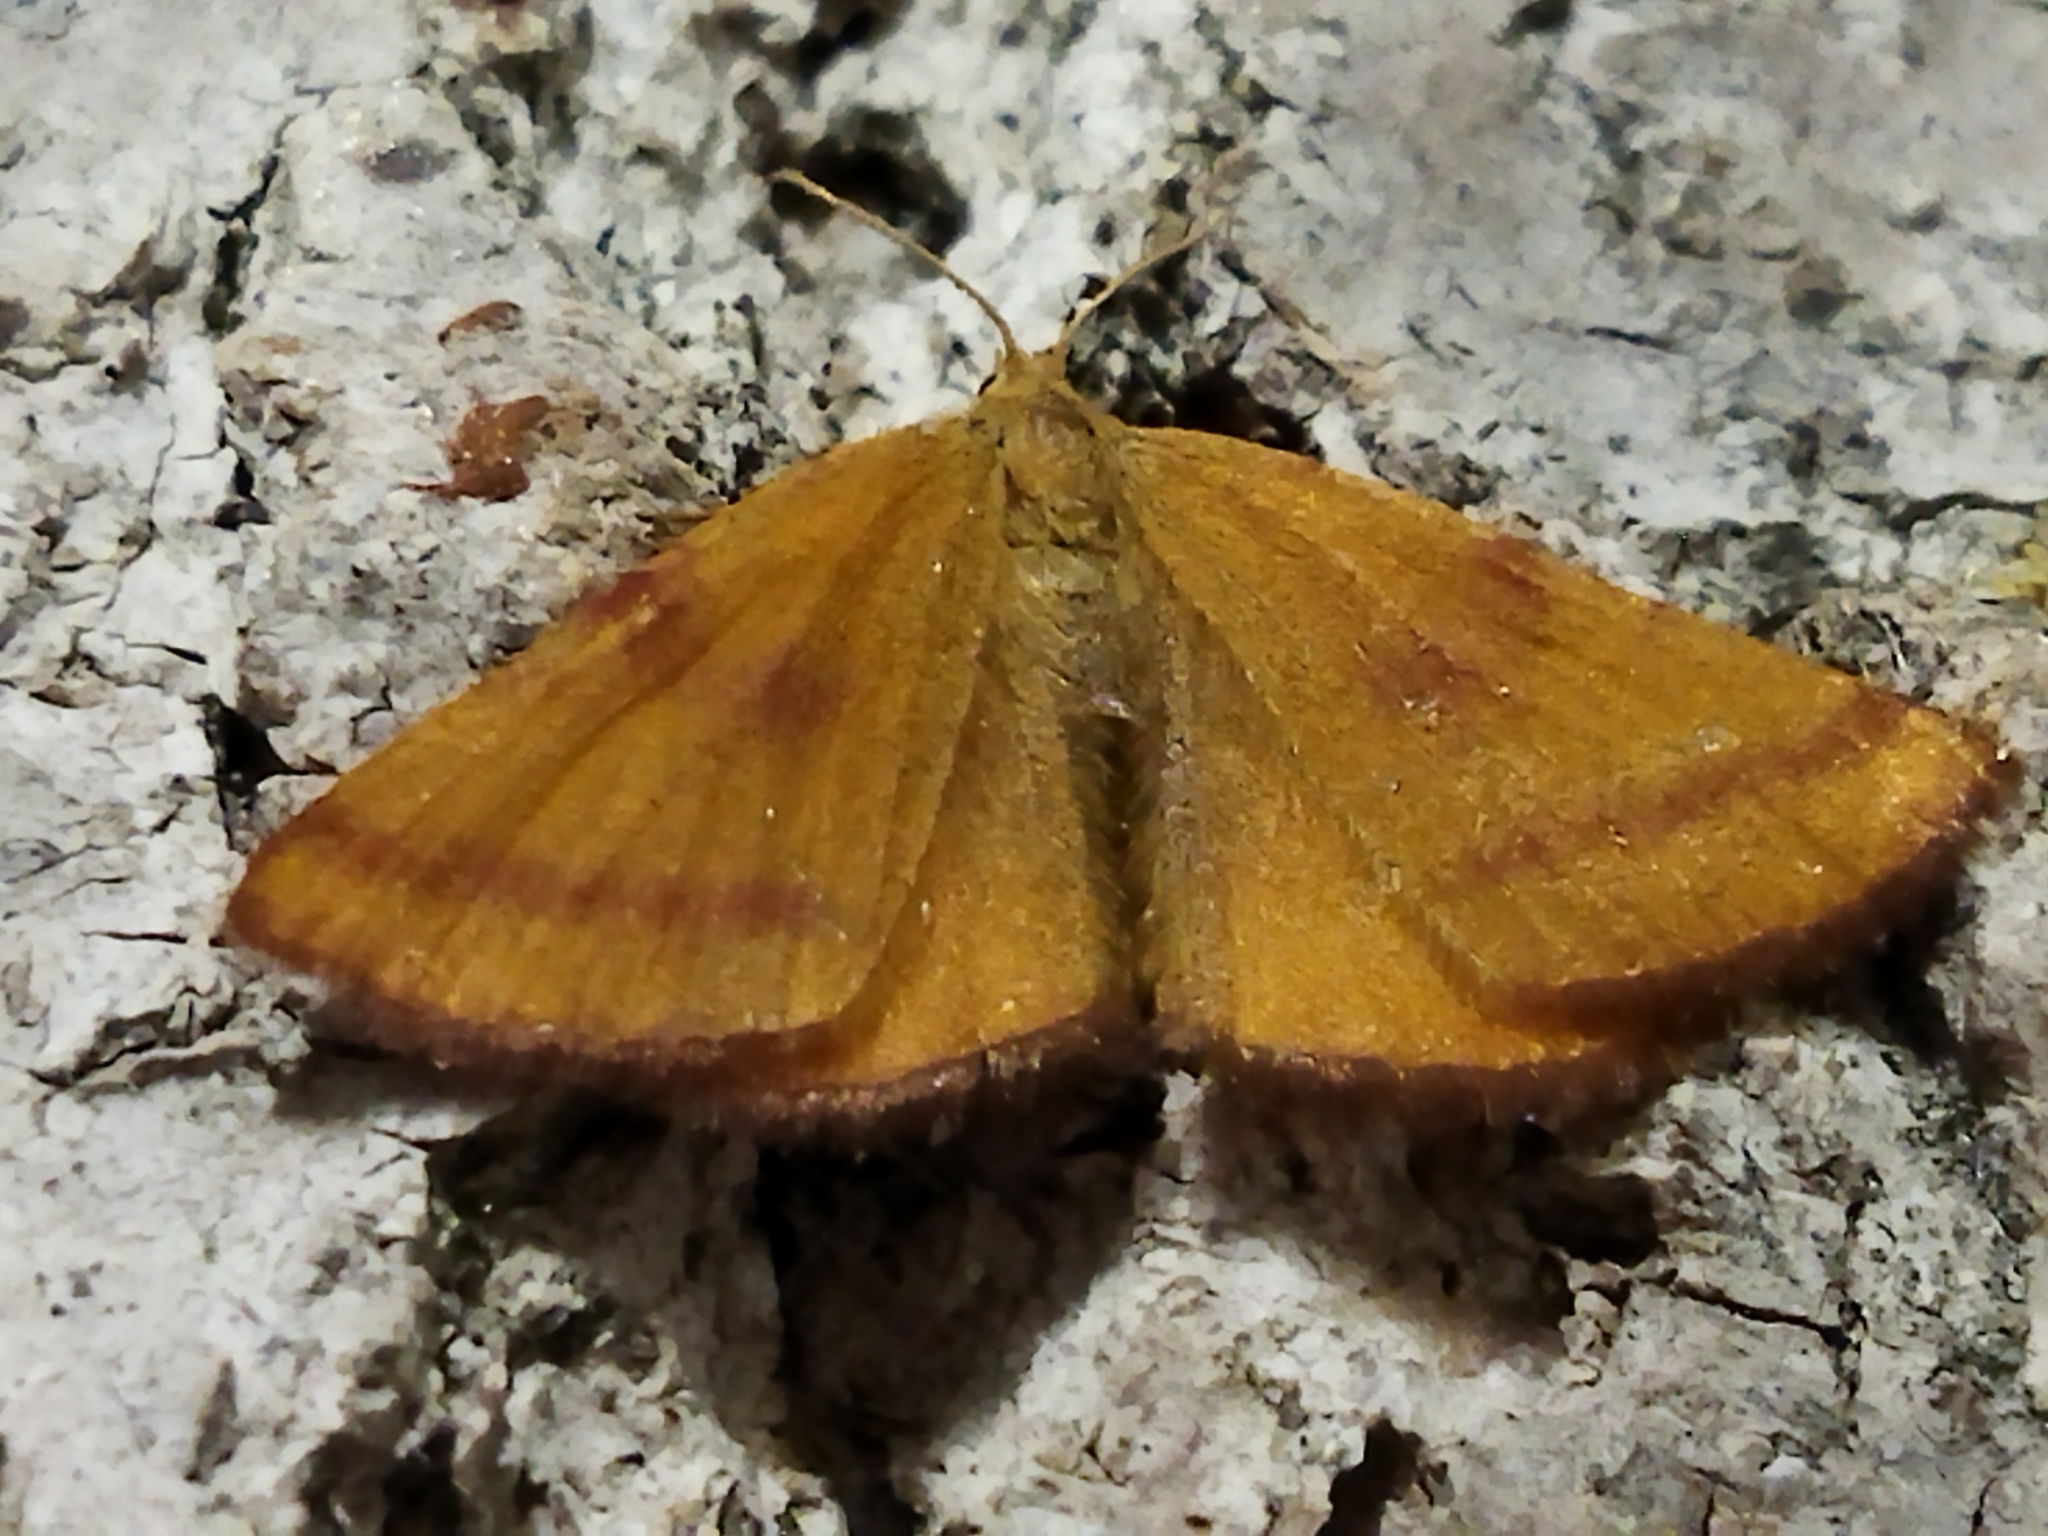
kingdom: Animalia
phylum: Arthropoda
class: Insecta
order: Lepidoptera
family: Geometridae
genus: Lythria
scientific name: Lythria purpuraria
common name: Purple-barred yellow
